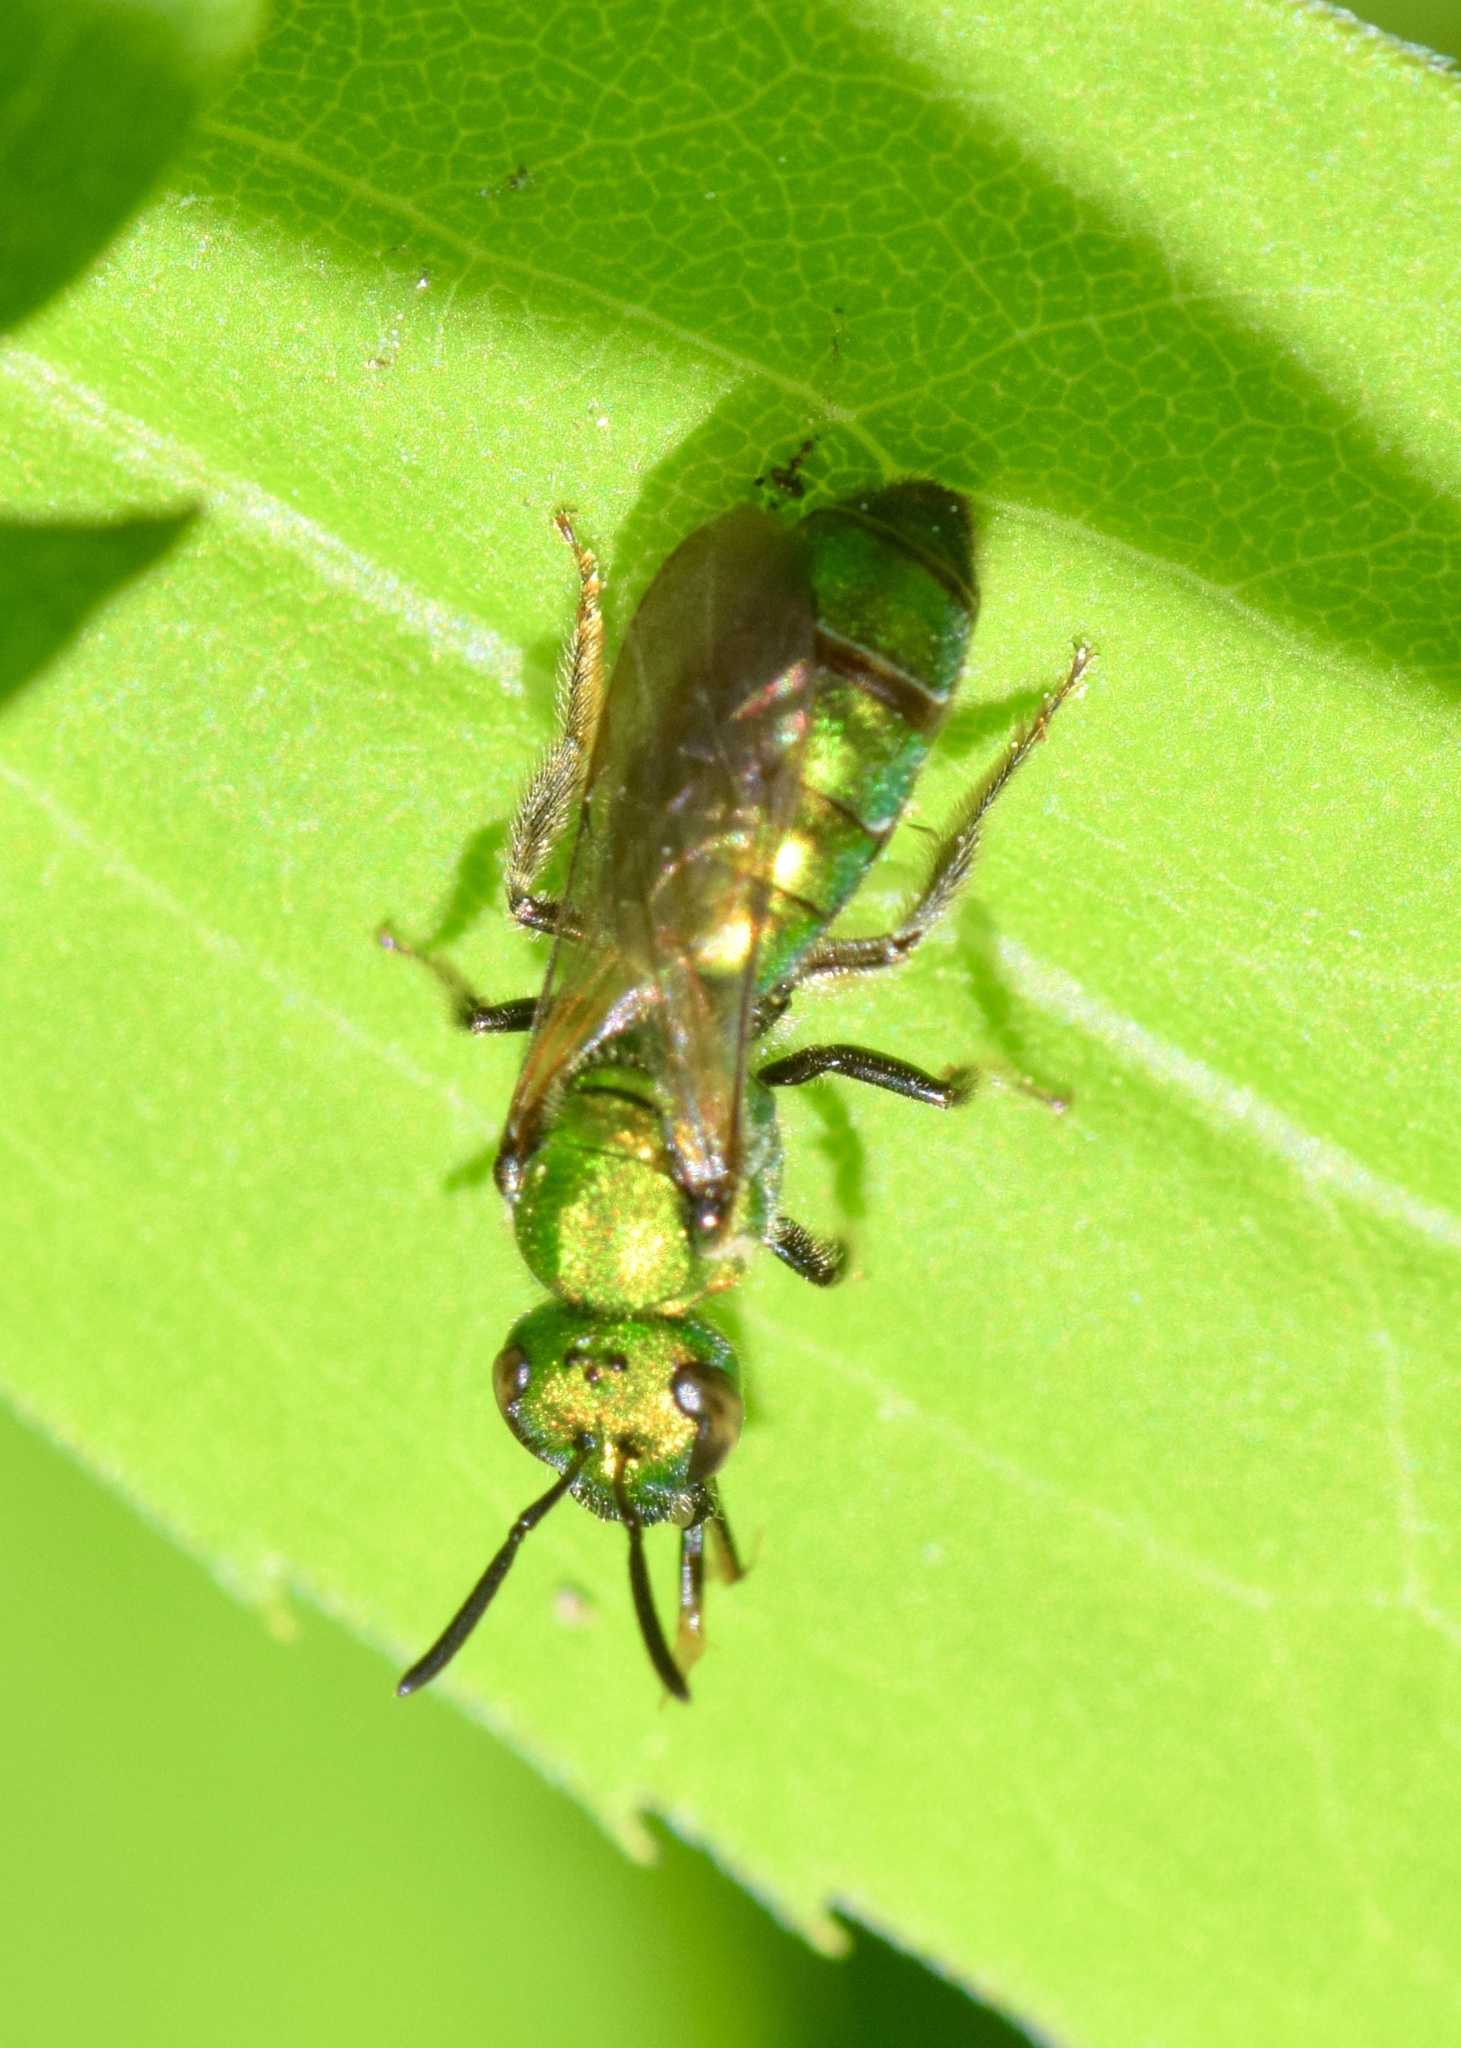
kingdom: Animalia
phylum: Arthropoda
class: Insecta
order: Hymenoptera
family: Halictidae
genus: Augochlora
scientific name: Augochlora pura
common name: Pure green sweat bee
